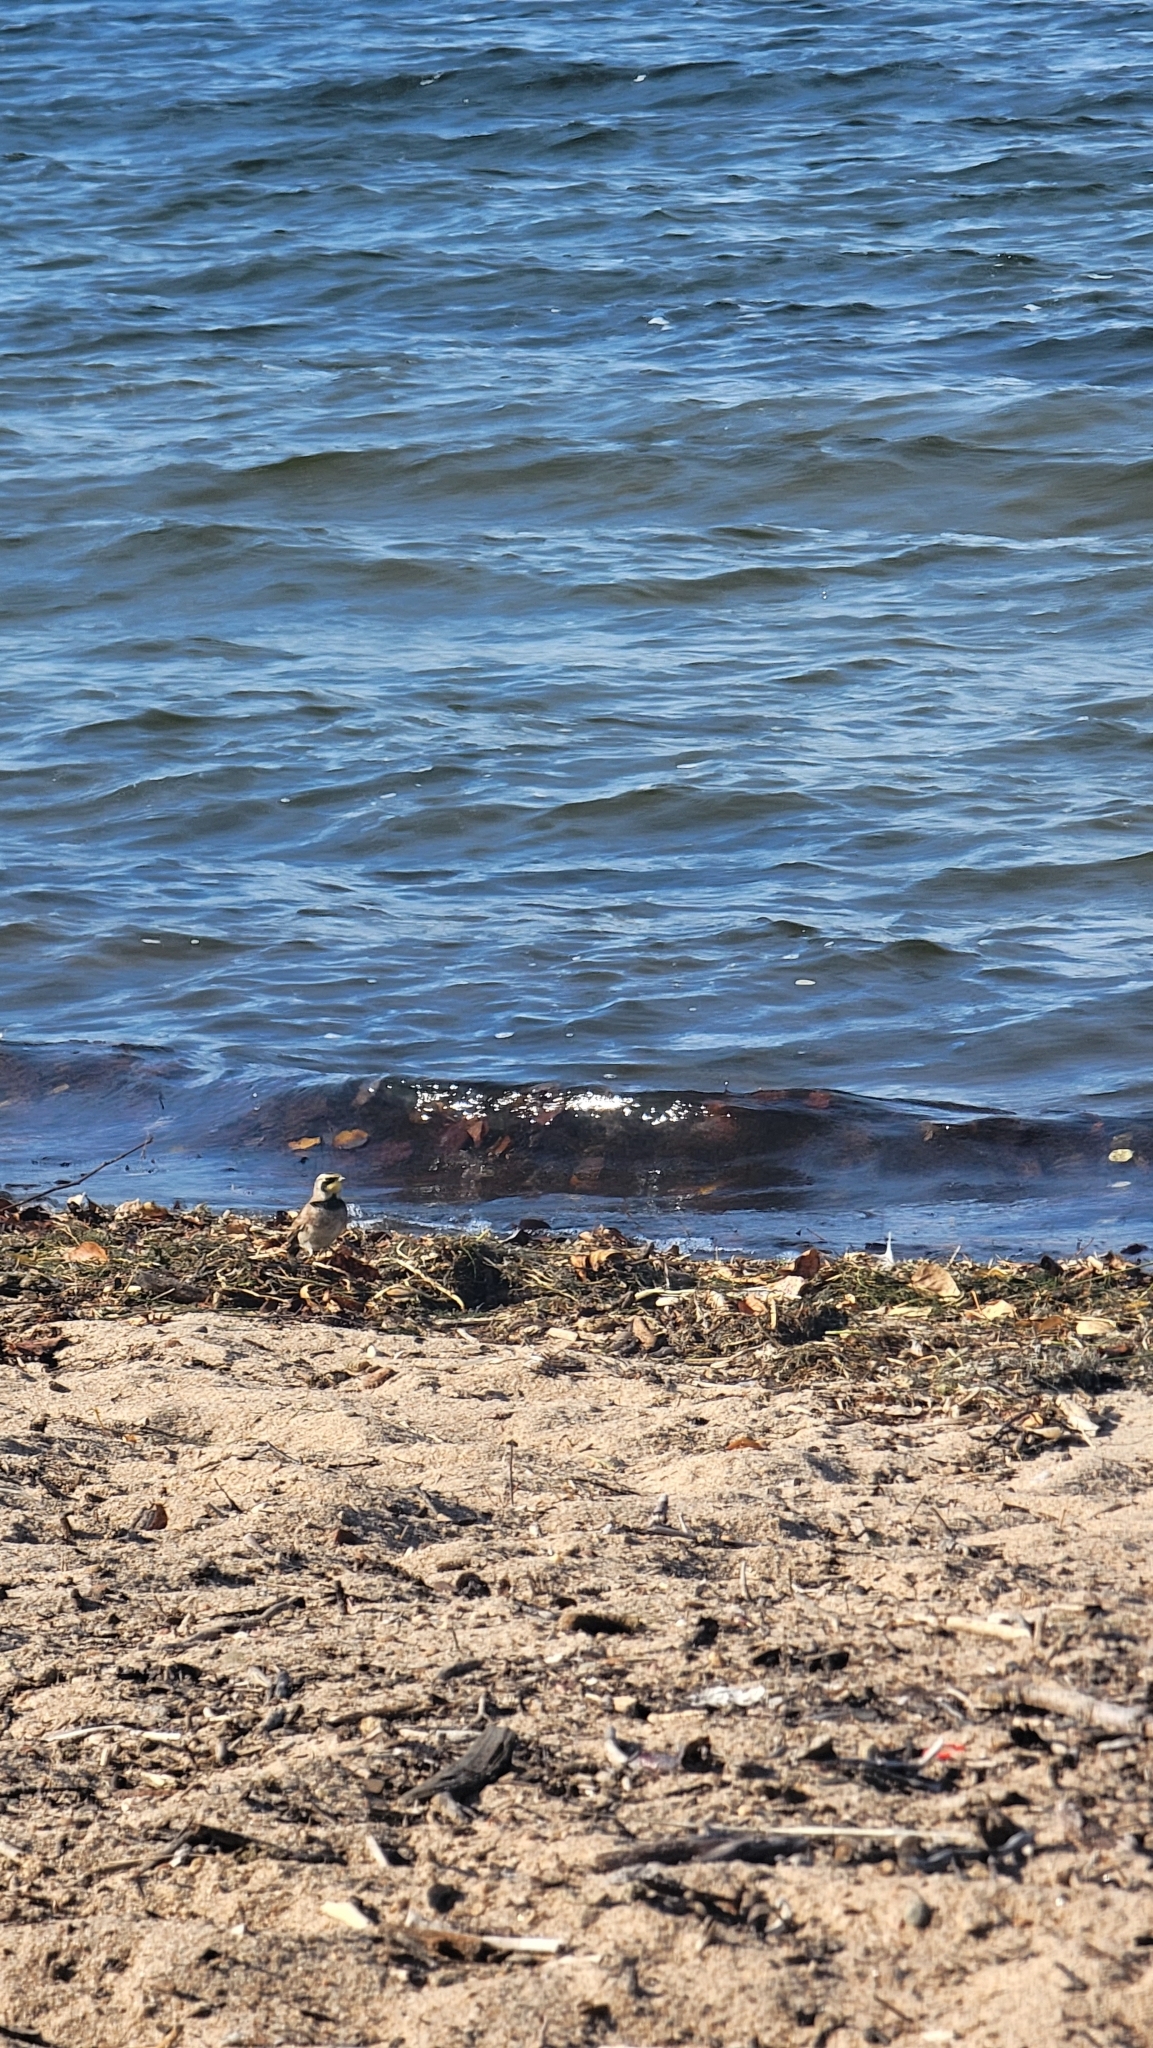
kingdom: Animalia
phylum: Chordata
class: Aves
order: Passeriformes
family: Alaudidae
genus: Eremophila
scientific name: Eremophila alpestris
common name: Horned lark
